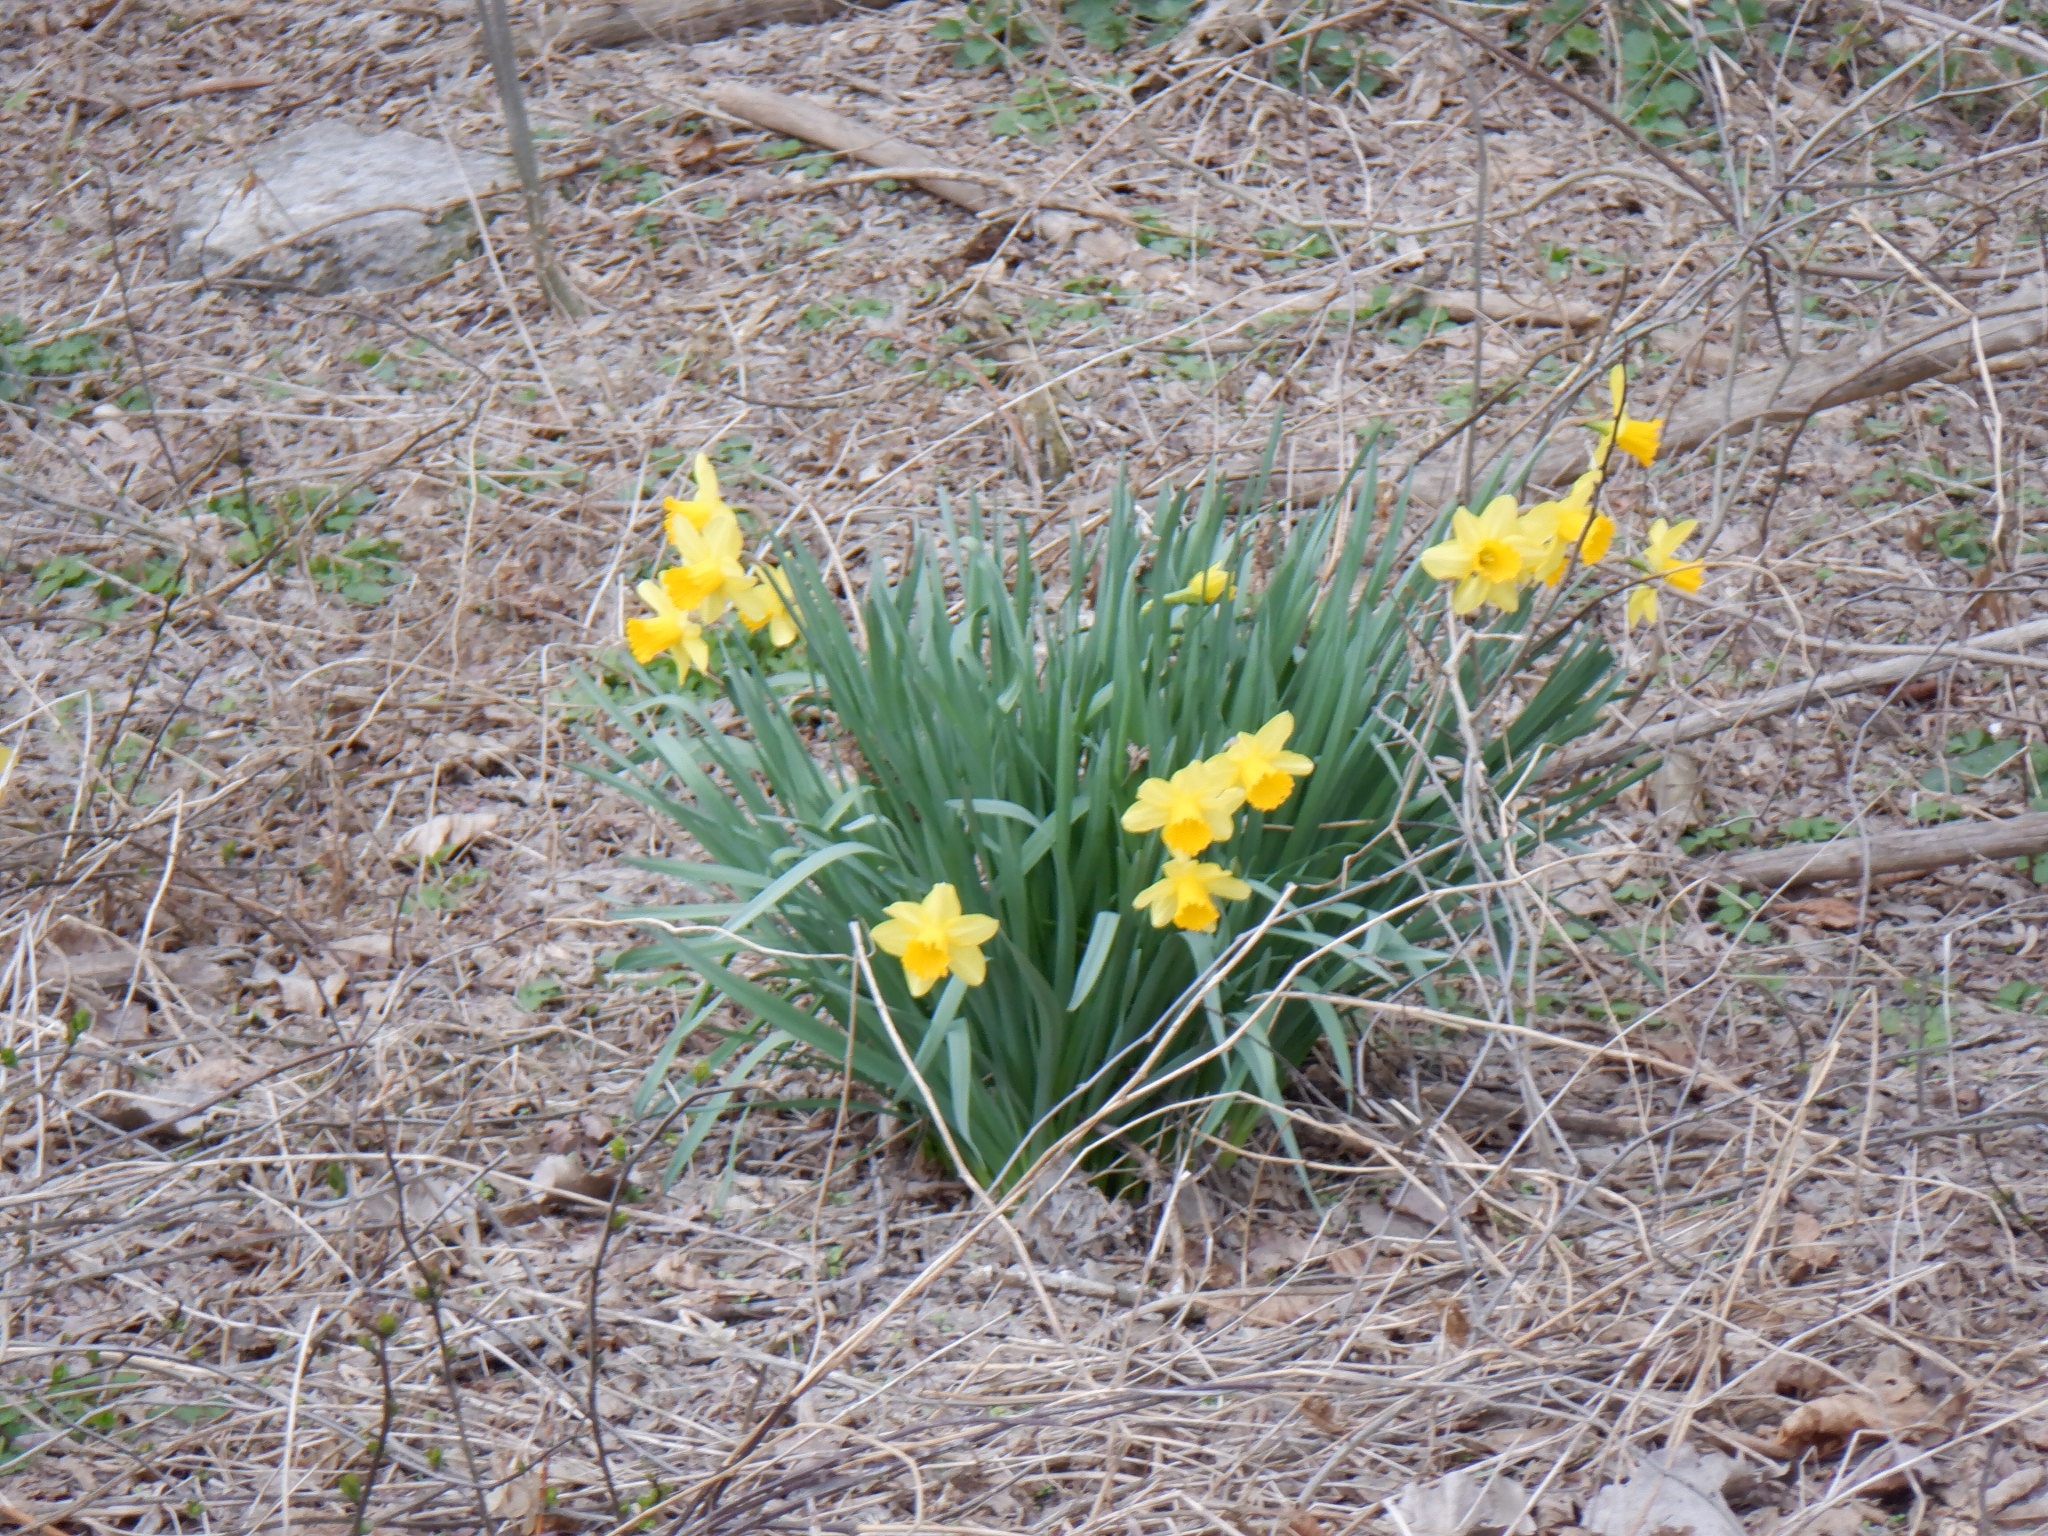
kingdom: Plantae
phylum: Tracheophyta
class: Liliopsida
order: Asparagales
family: Amaryllidaceae
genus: Narcissus
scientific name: Narcissus pseudonarcissus
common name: Daffodil
